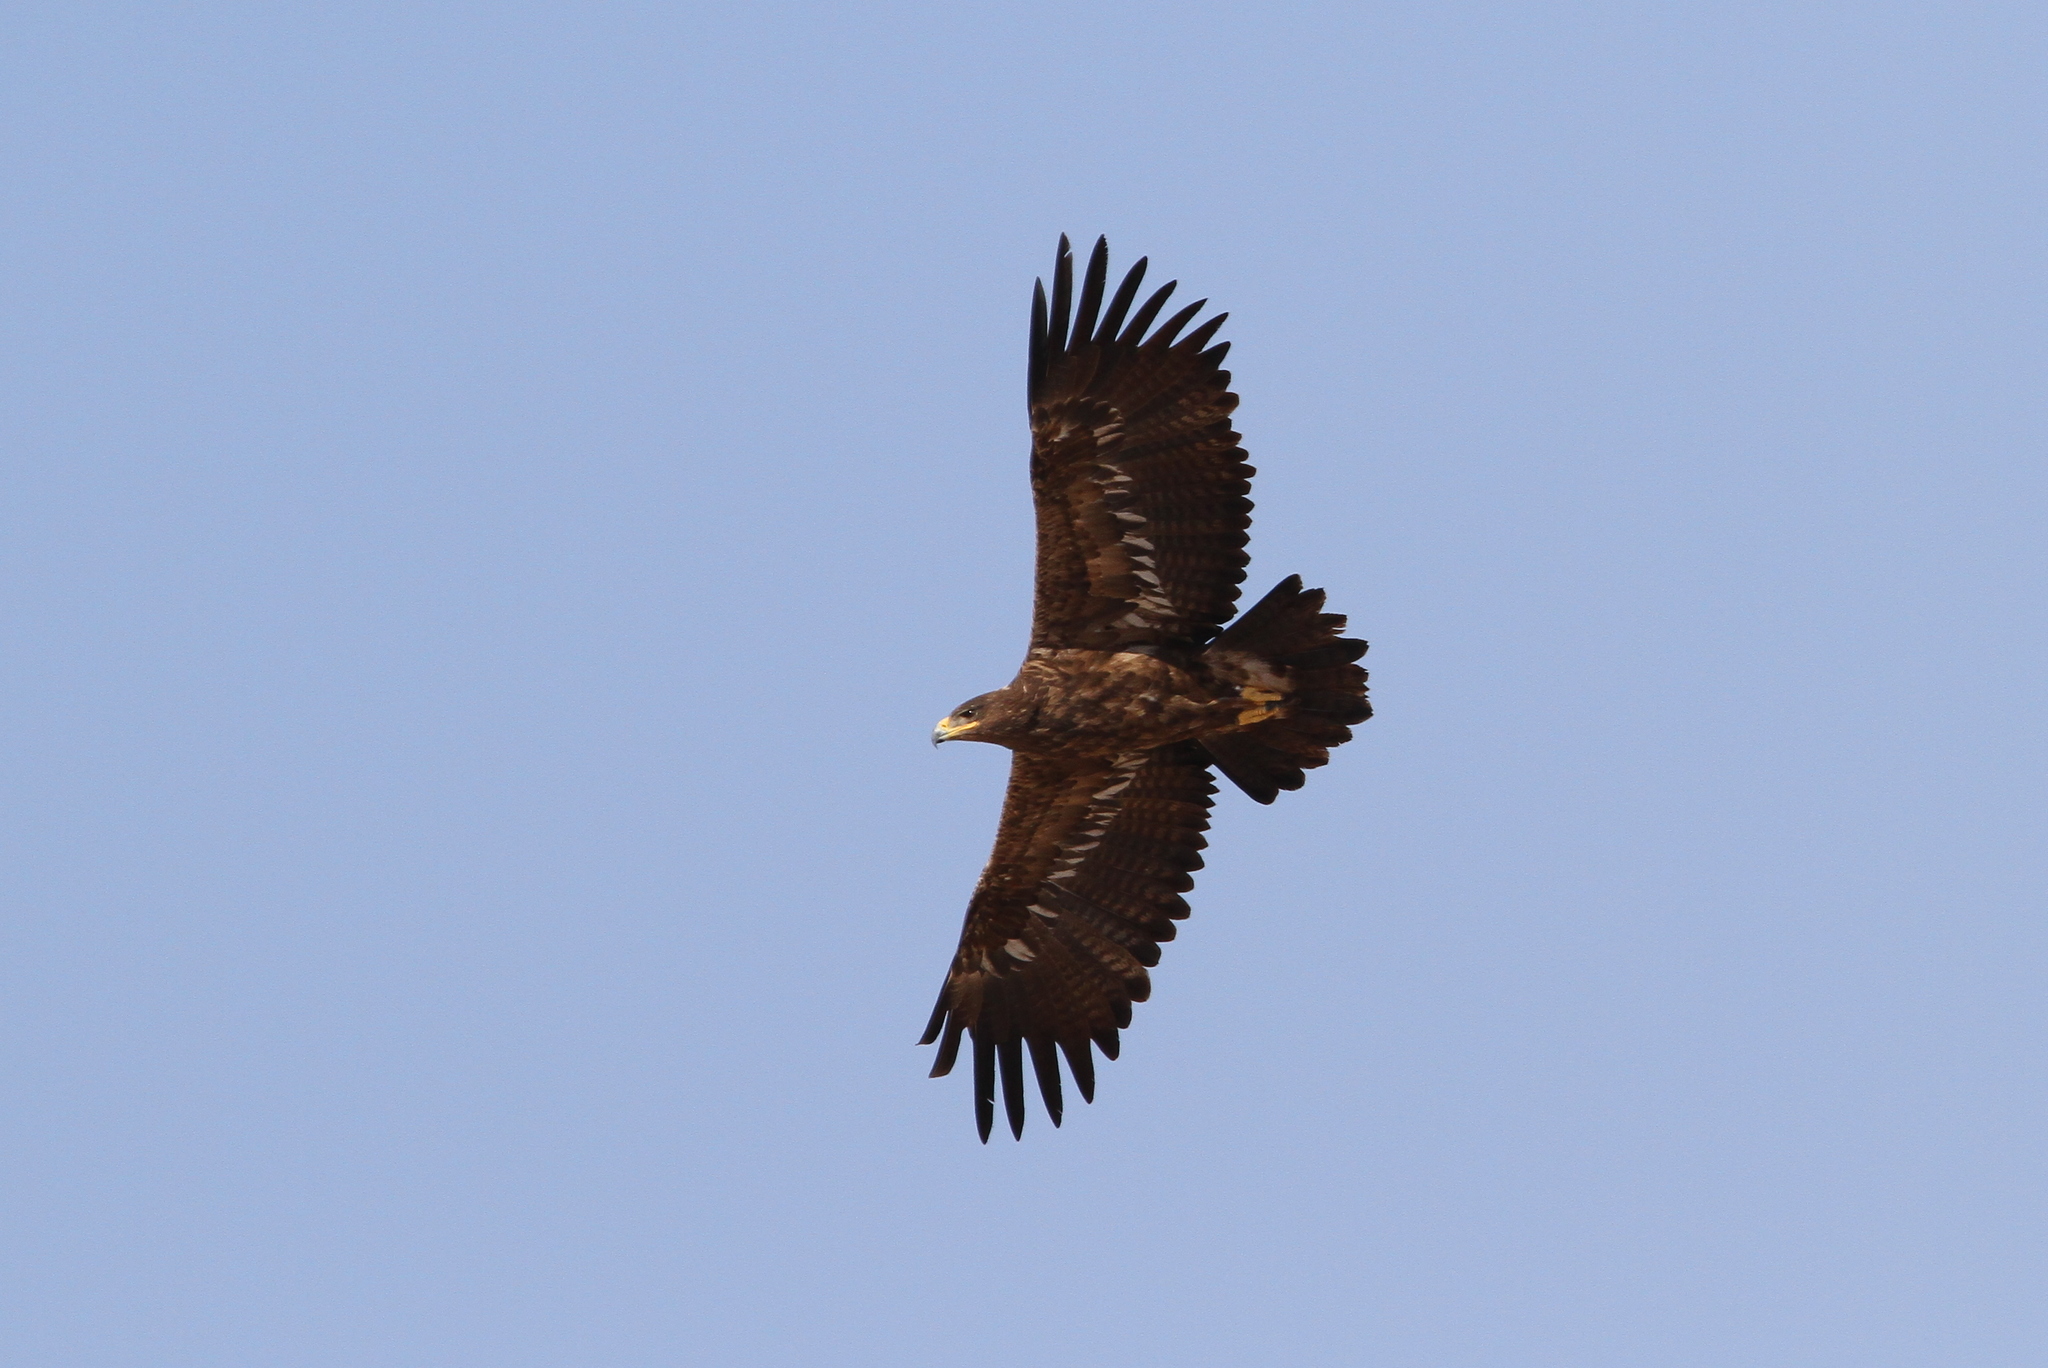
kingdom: Animalia
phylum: Chordata
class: Aves
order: Accipitriformes
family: Accipitridae
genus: Aquila
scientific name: Aquila nipalensis
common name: Steppe eagle
